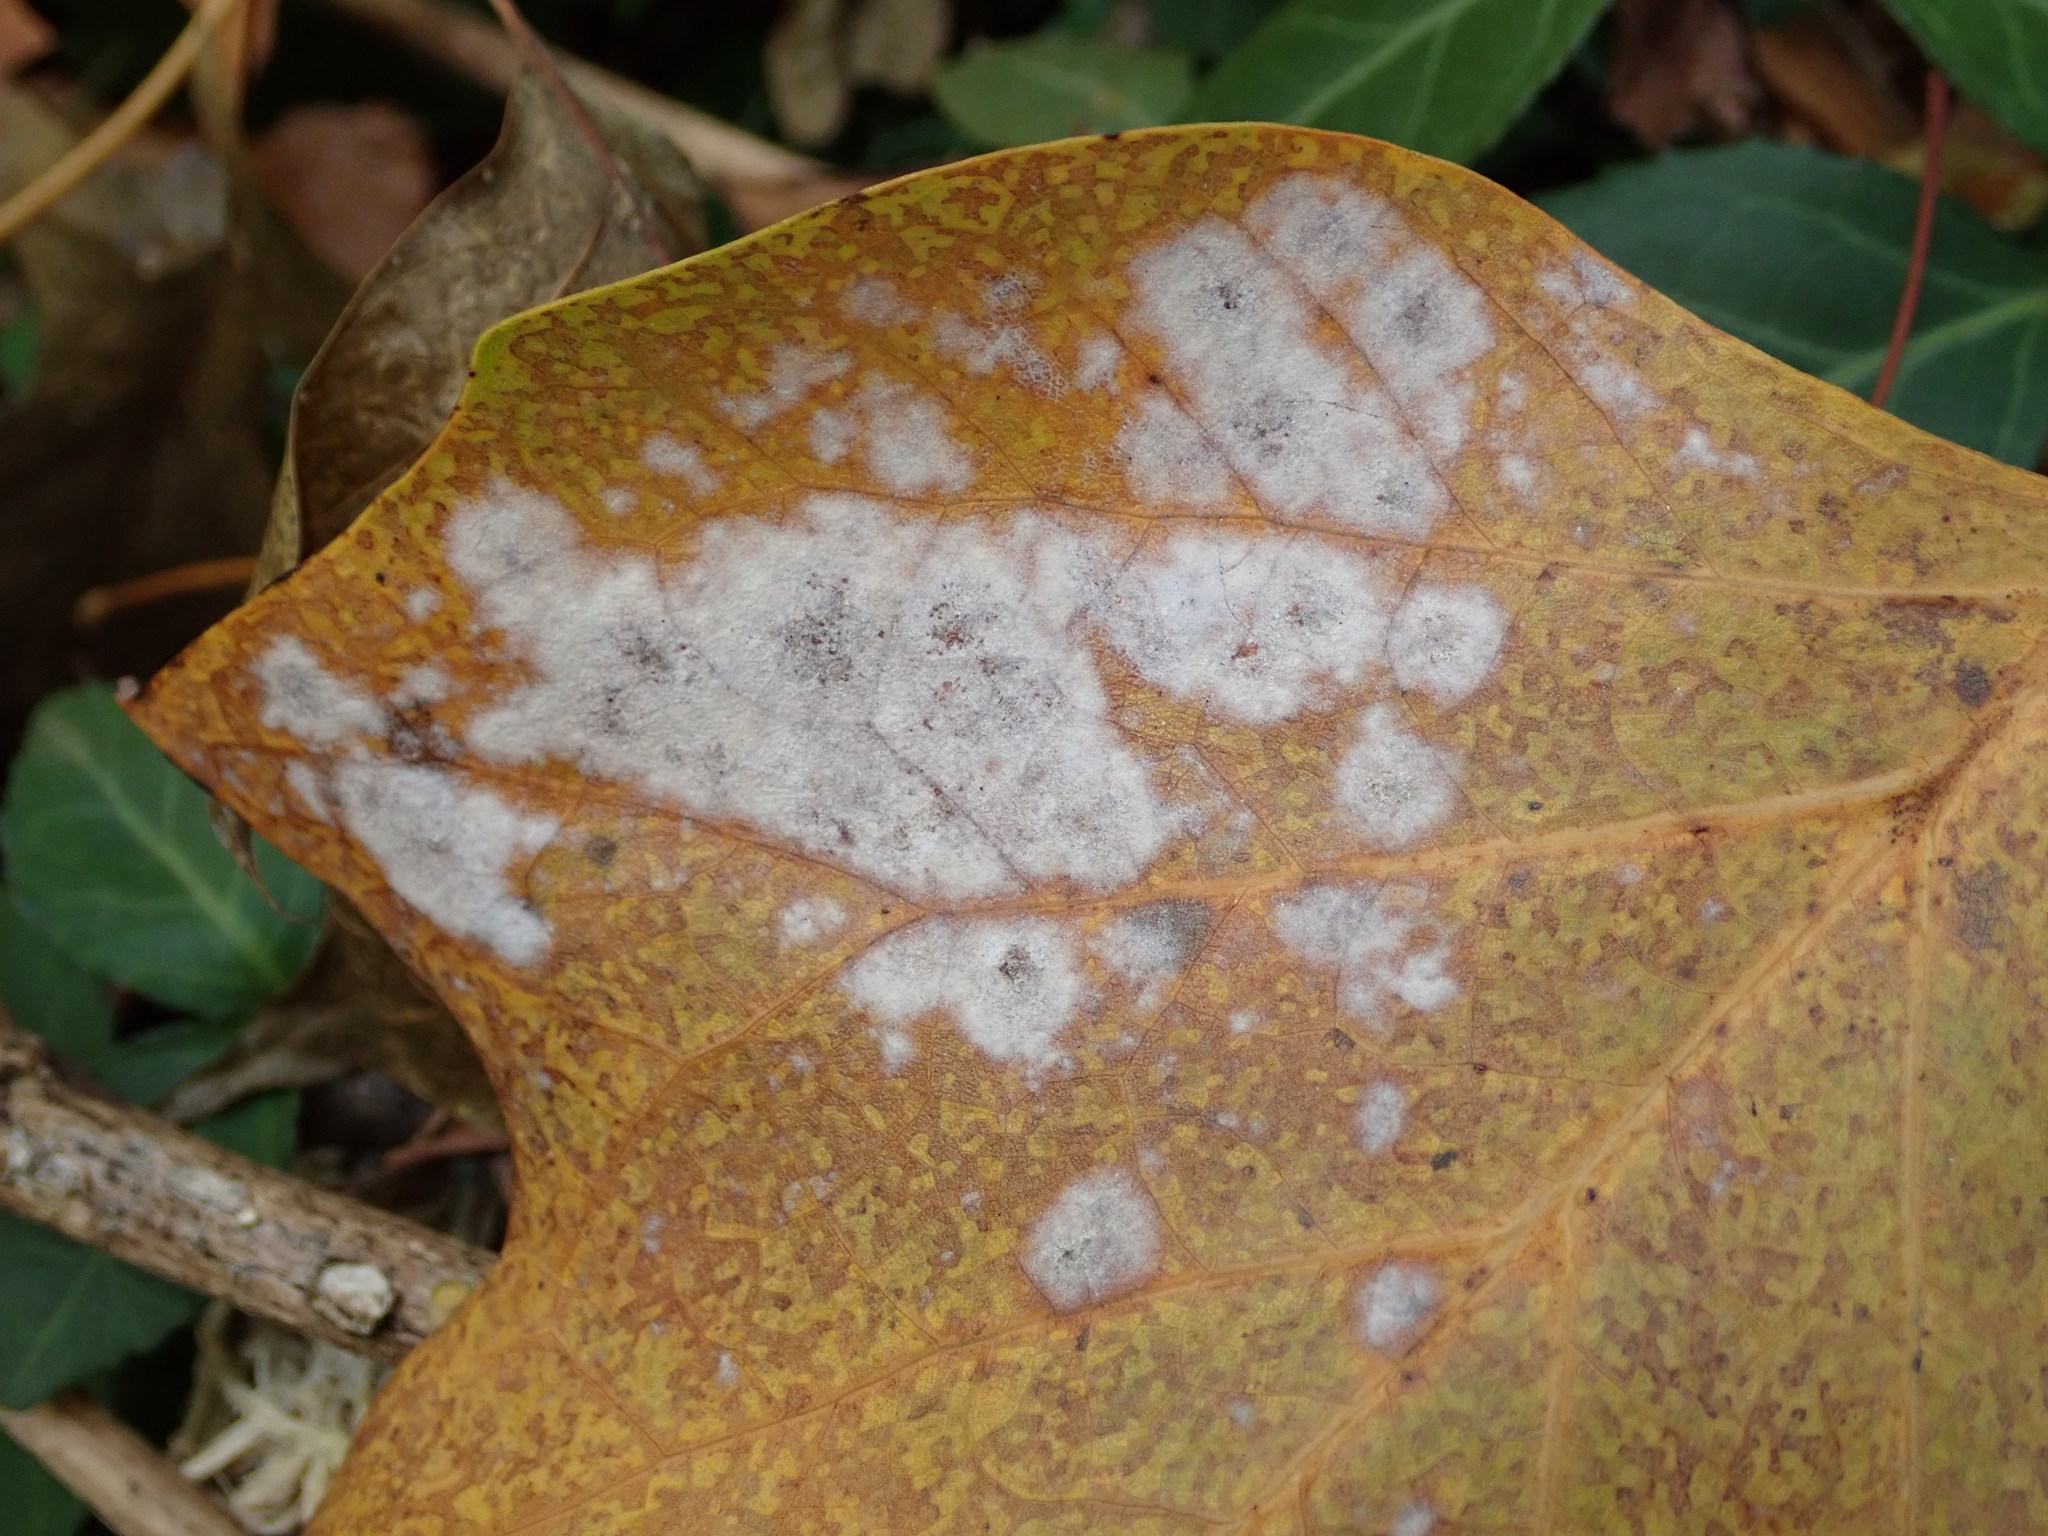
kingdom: Fungi
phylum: Ascomycota
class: Leotiomycetes
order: Helotiales
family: Erysiphaceae
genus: Erysiphe
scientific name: Erysiphe liriodendri
